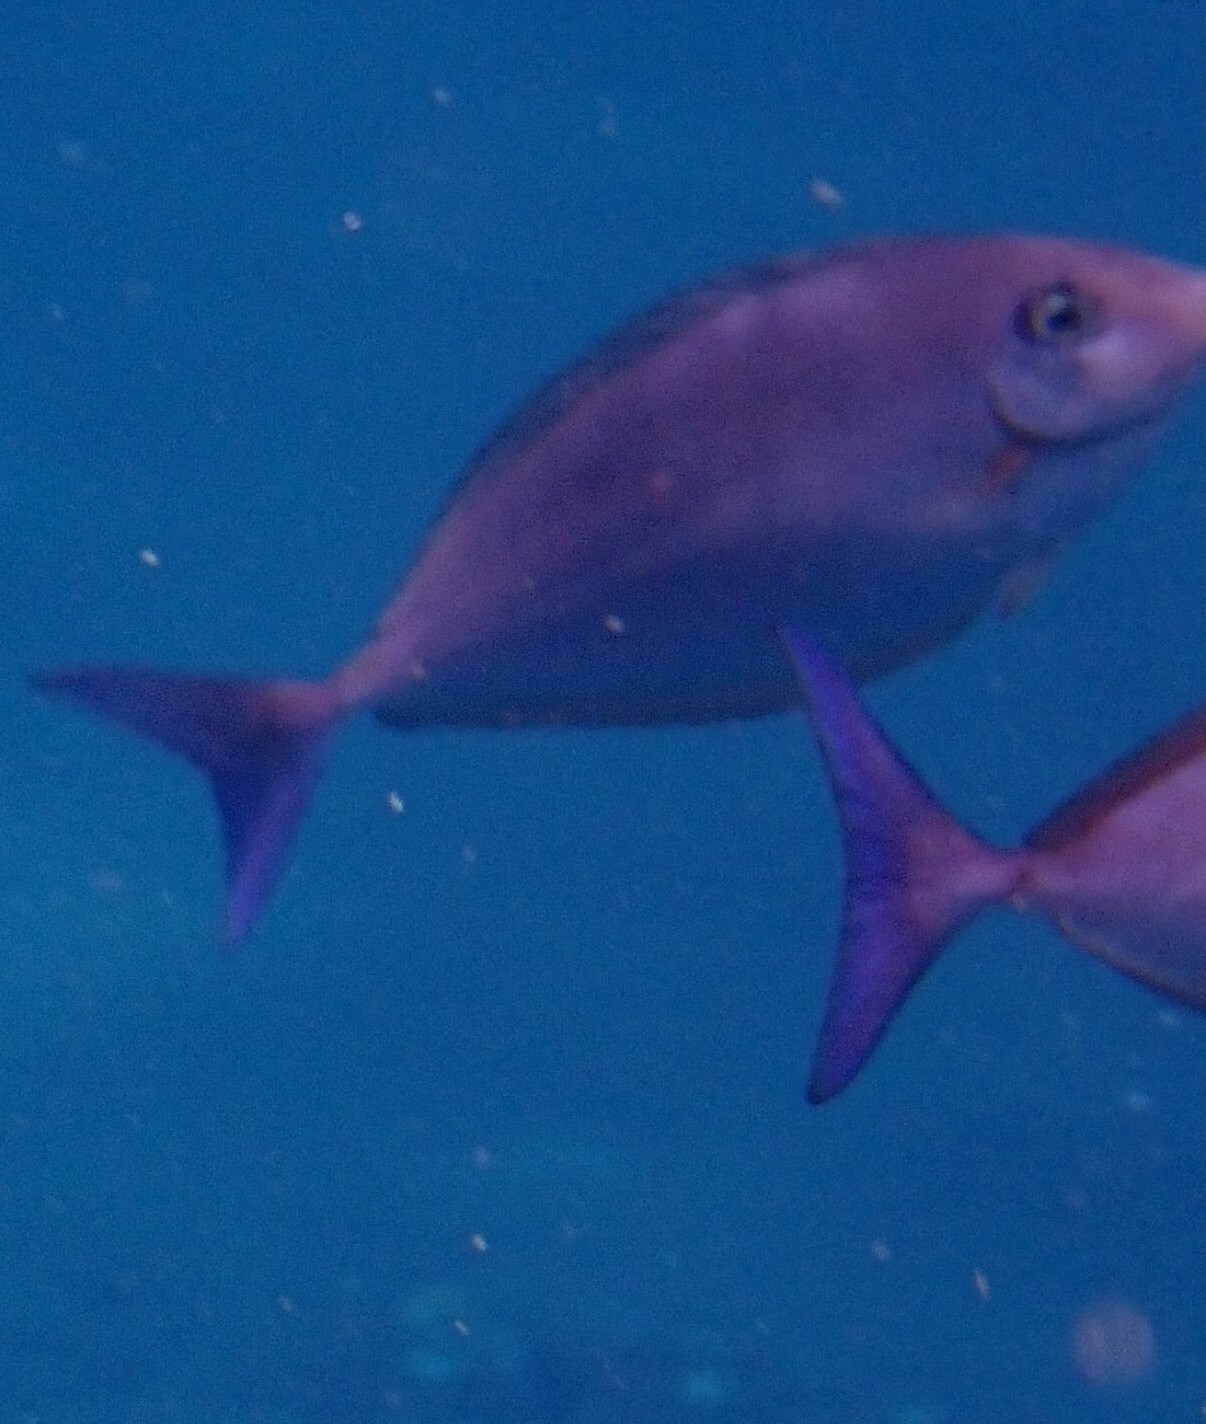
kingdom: Animalia
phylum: Chordata
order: Perciformes
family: Acanthuridae
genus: Naso
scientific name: Naso caeruleacauda
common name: Bluetail unicornfish
